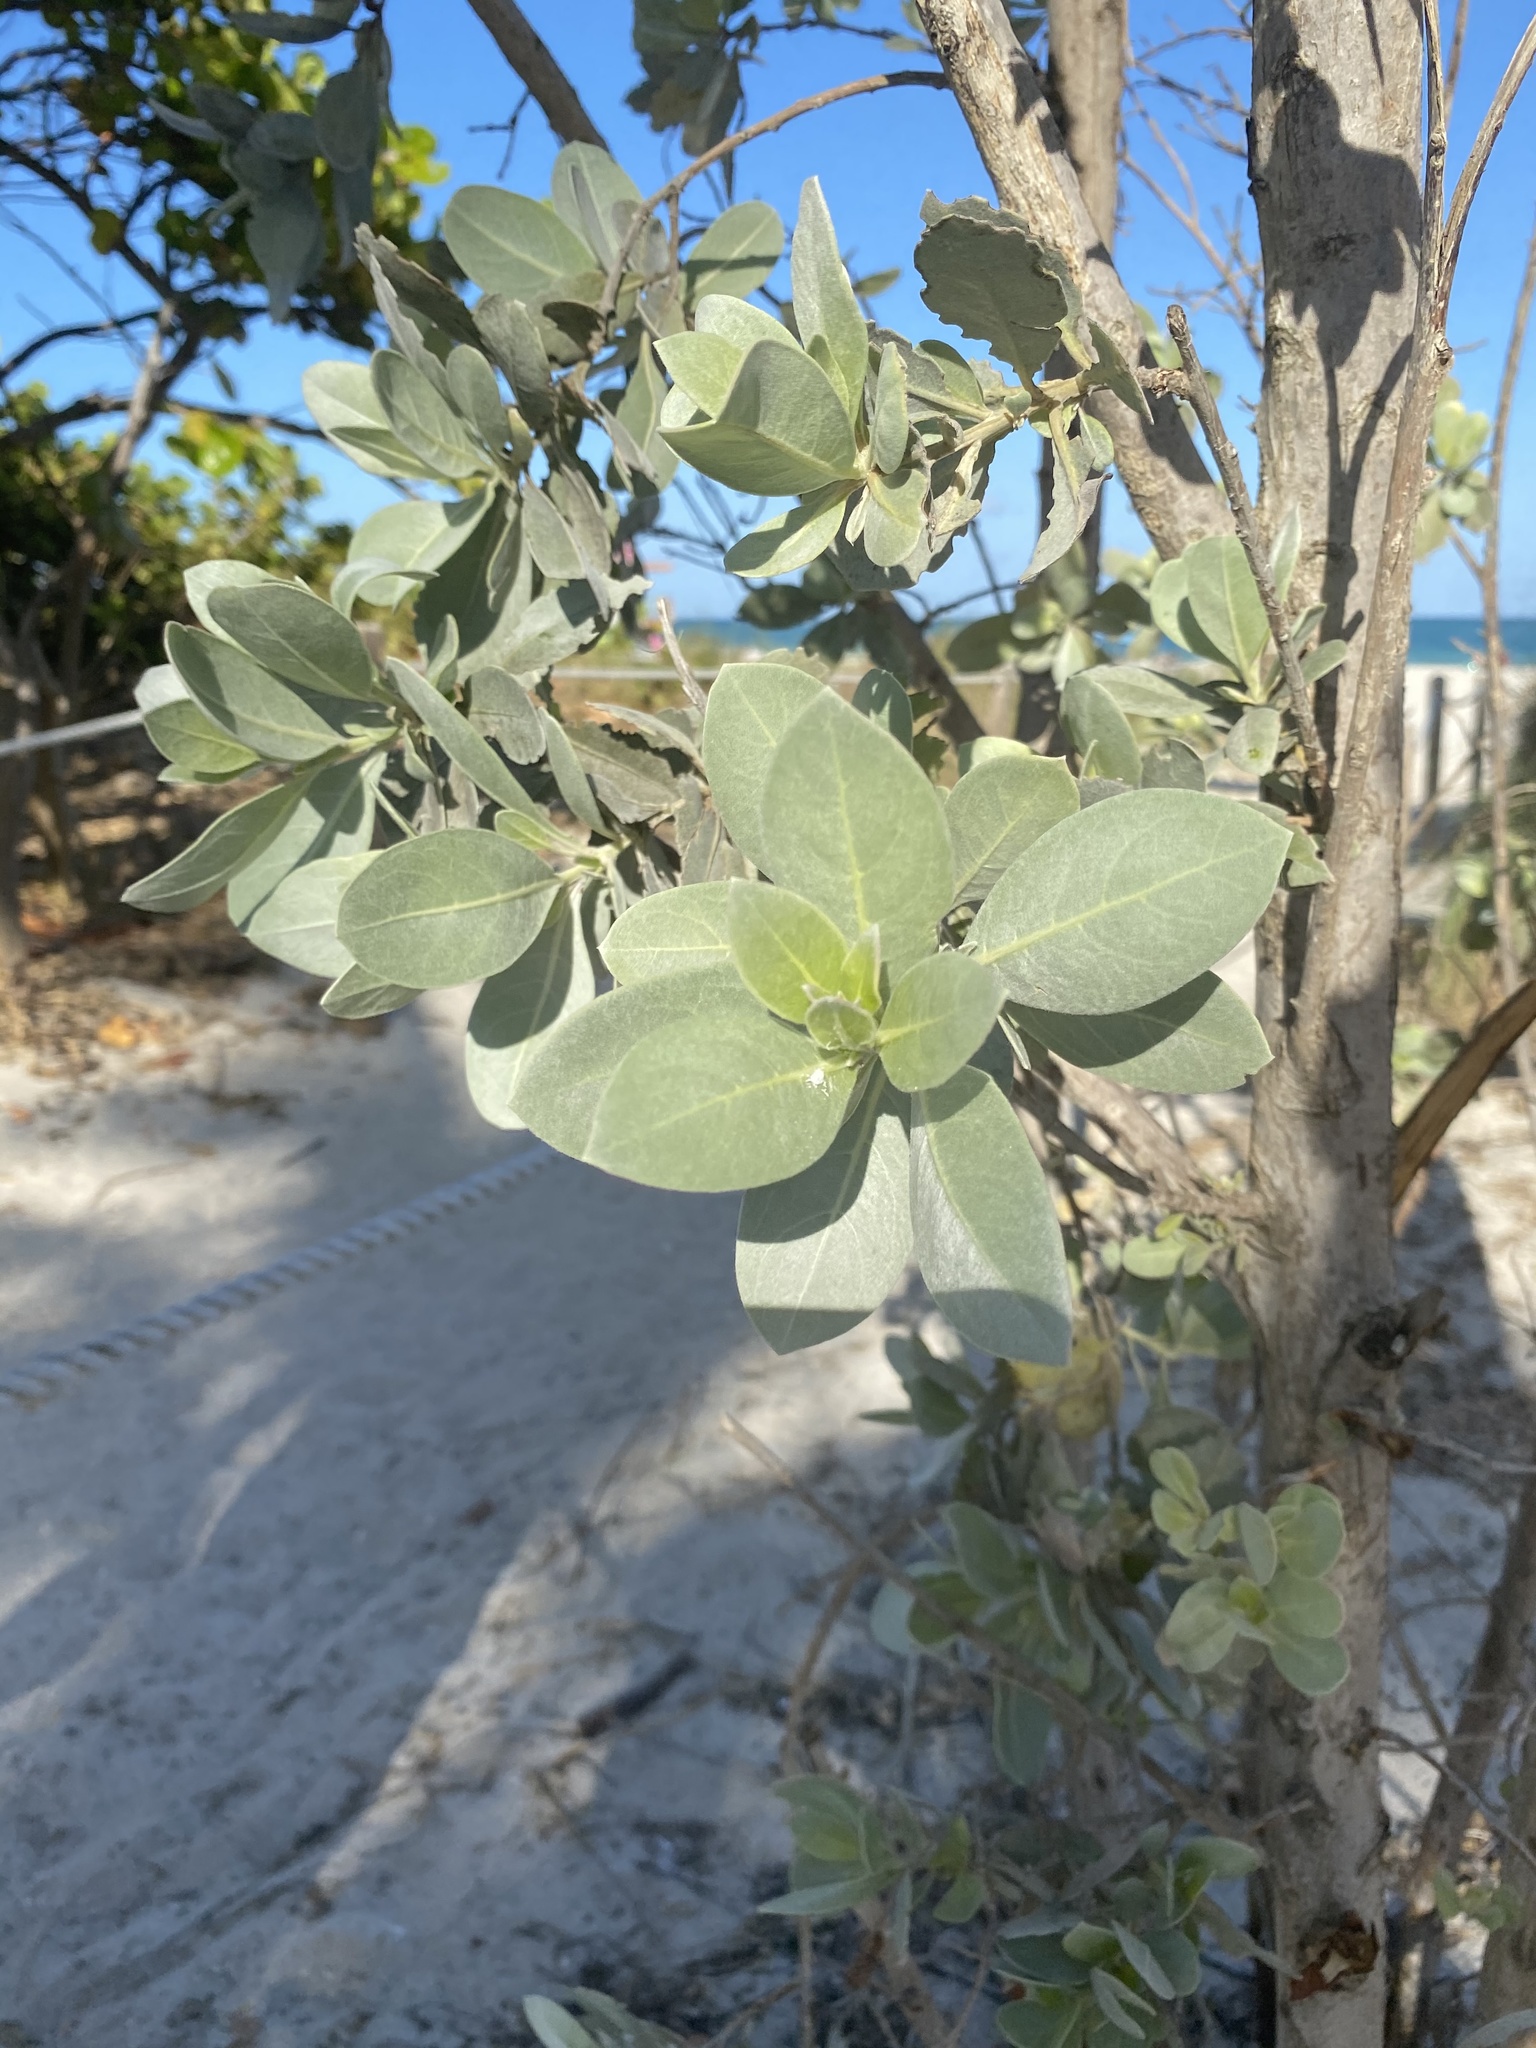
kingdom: Plantae
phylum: Tracheophyta
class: Magnoliopsida
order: Myrtales
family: Combretaceae
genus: Conocarpus
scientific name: Conocarpus erectus
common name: Button mangrove
